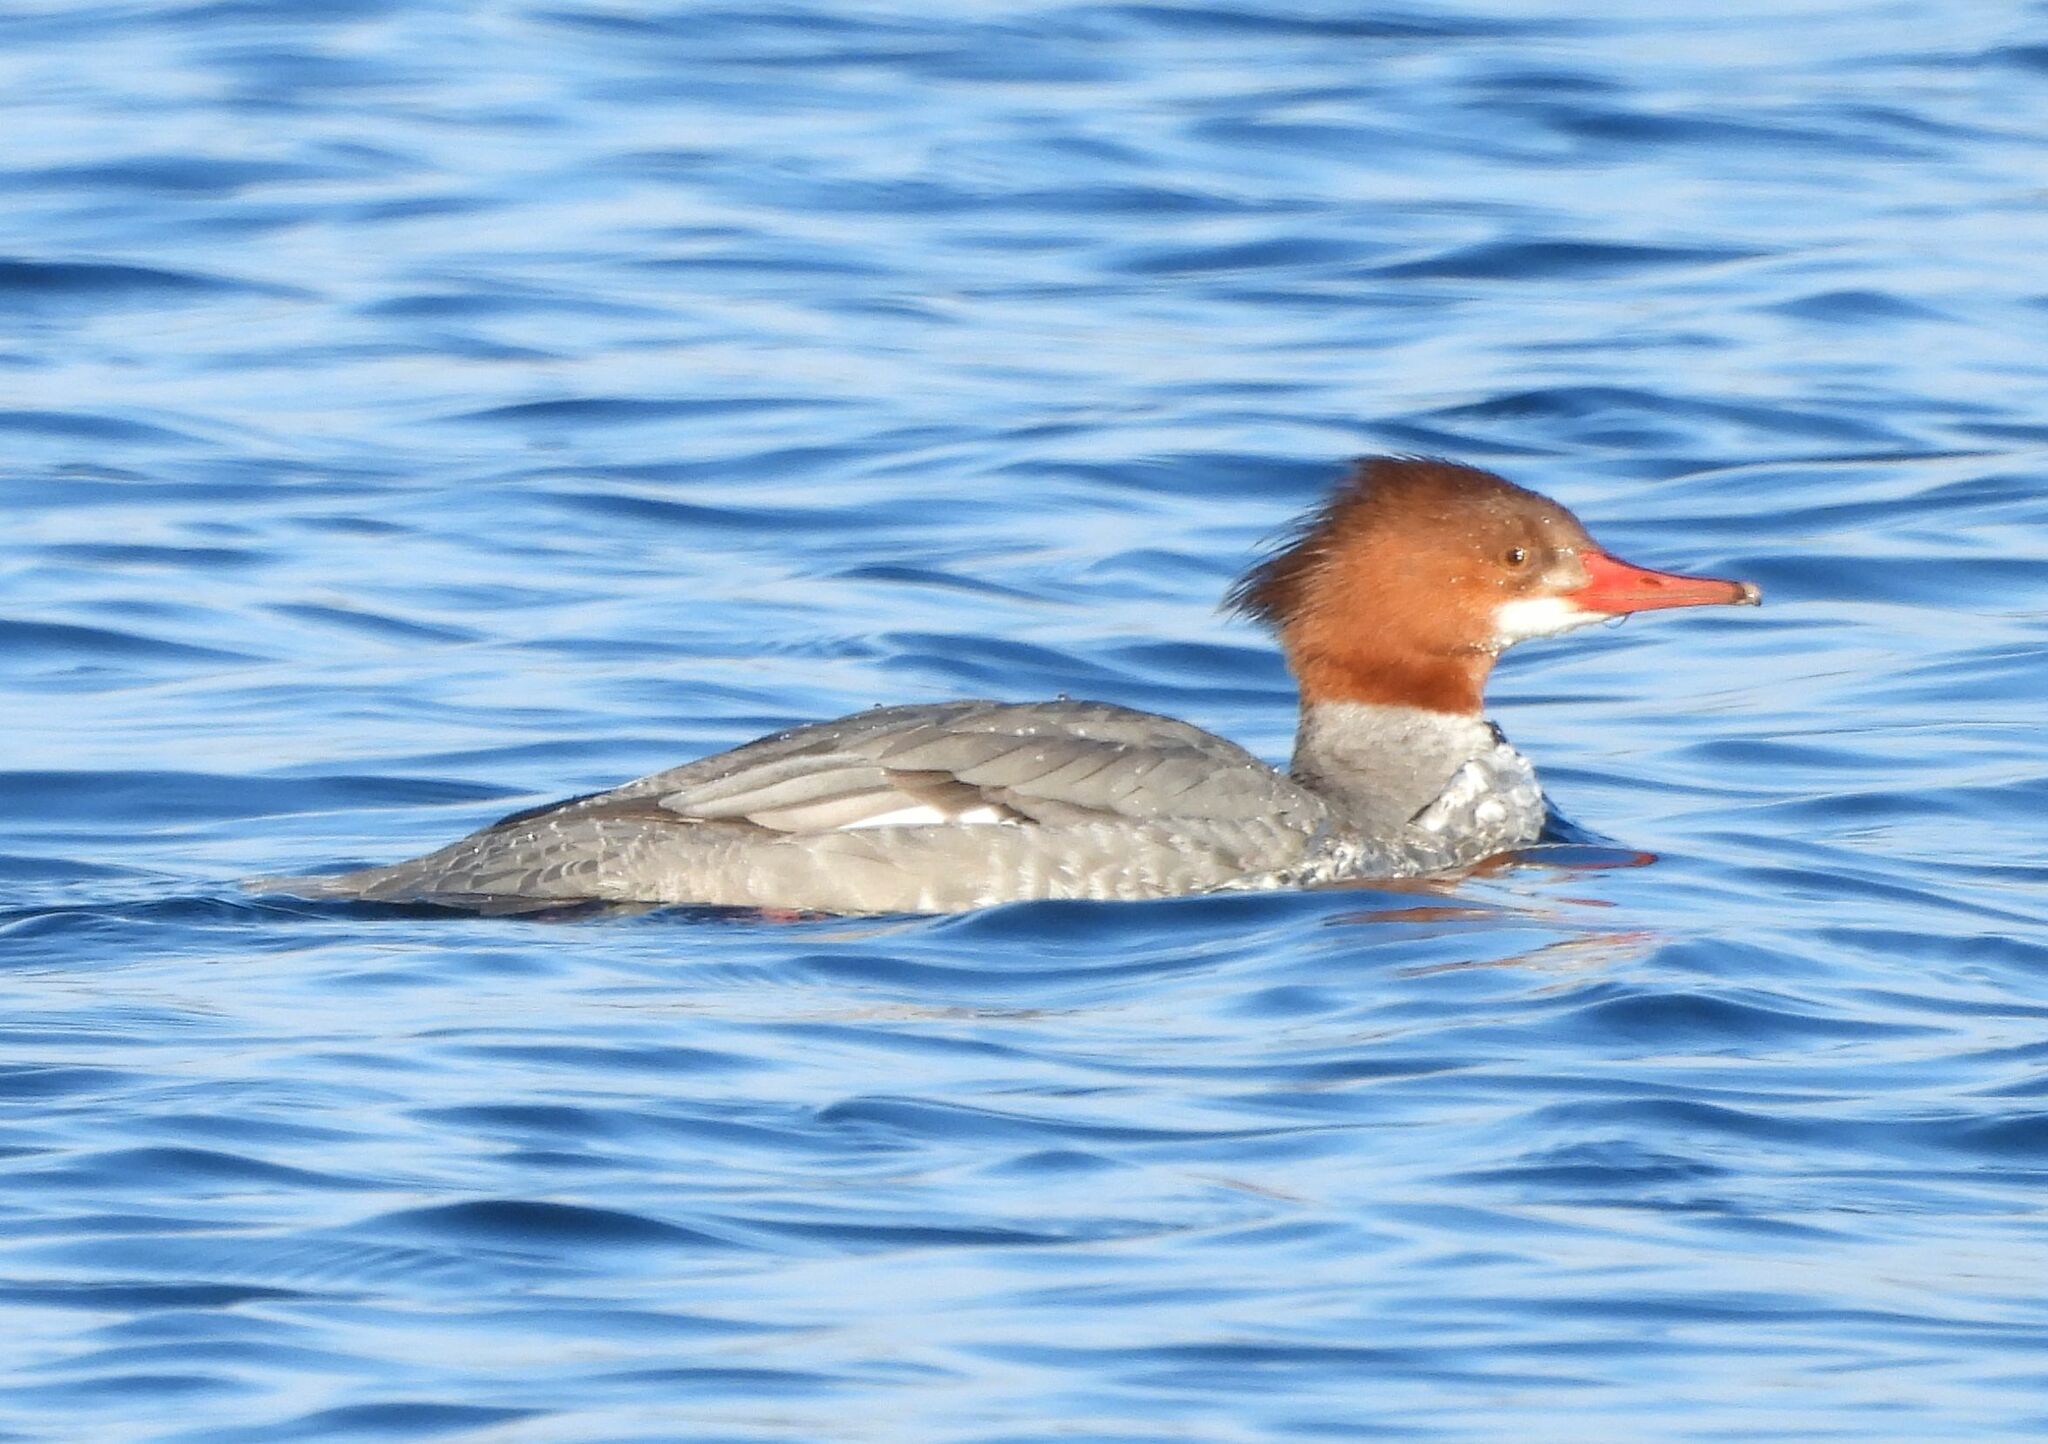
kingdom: Animalia
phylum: Chordata
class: Aves
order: Anseriformes
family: Anatidae
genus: Mergus
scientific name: Mergus merganser
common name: Common merganser
